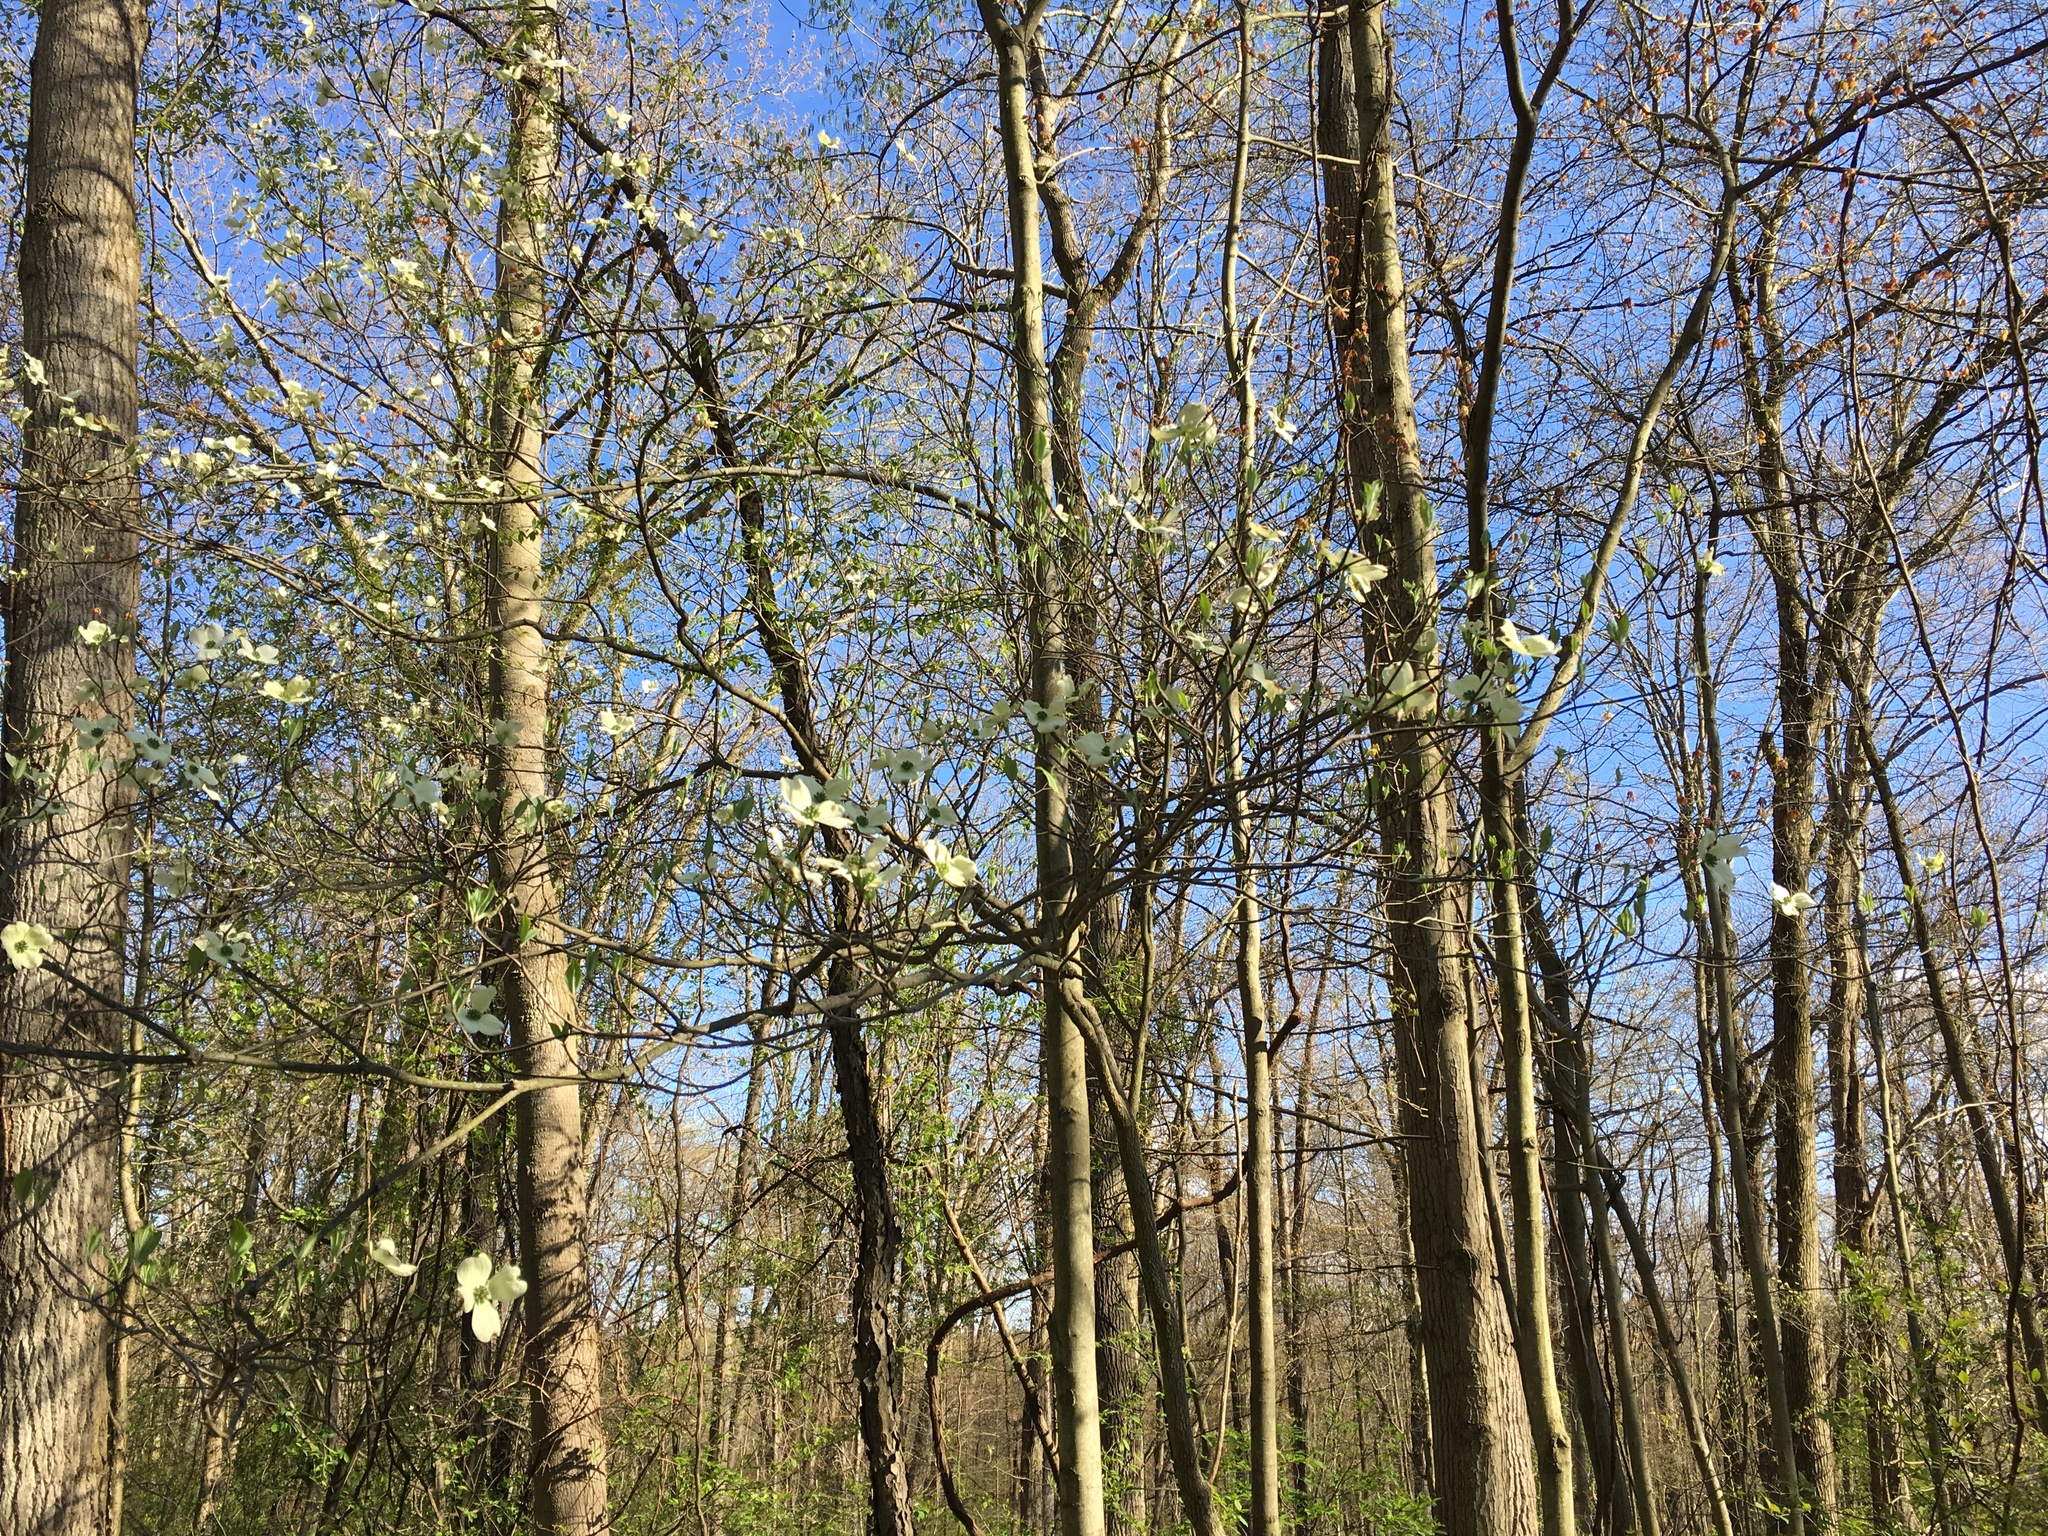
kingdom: Plantae
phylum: Tracheophyta
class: Magnoliopsida
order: Cornales
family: Cornaceae
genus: Cornus
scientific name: Cornus florida
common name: Flowering dogwood
